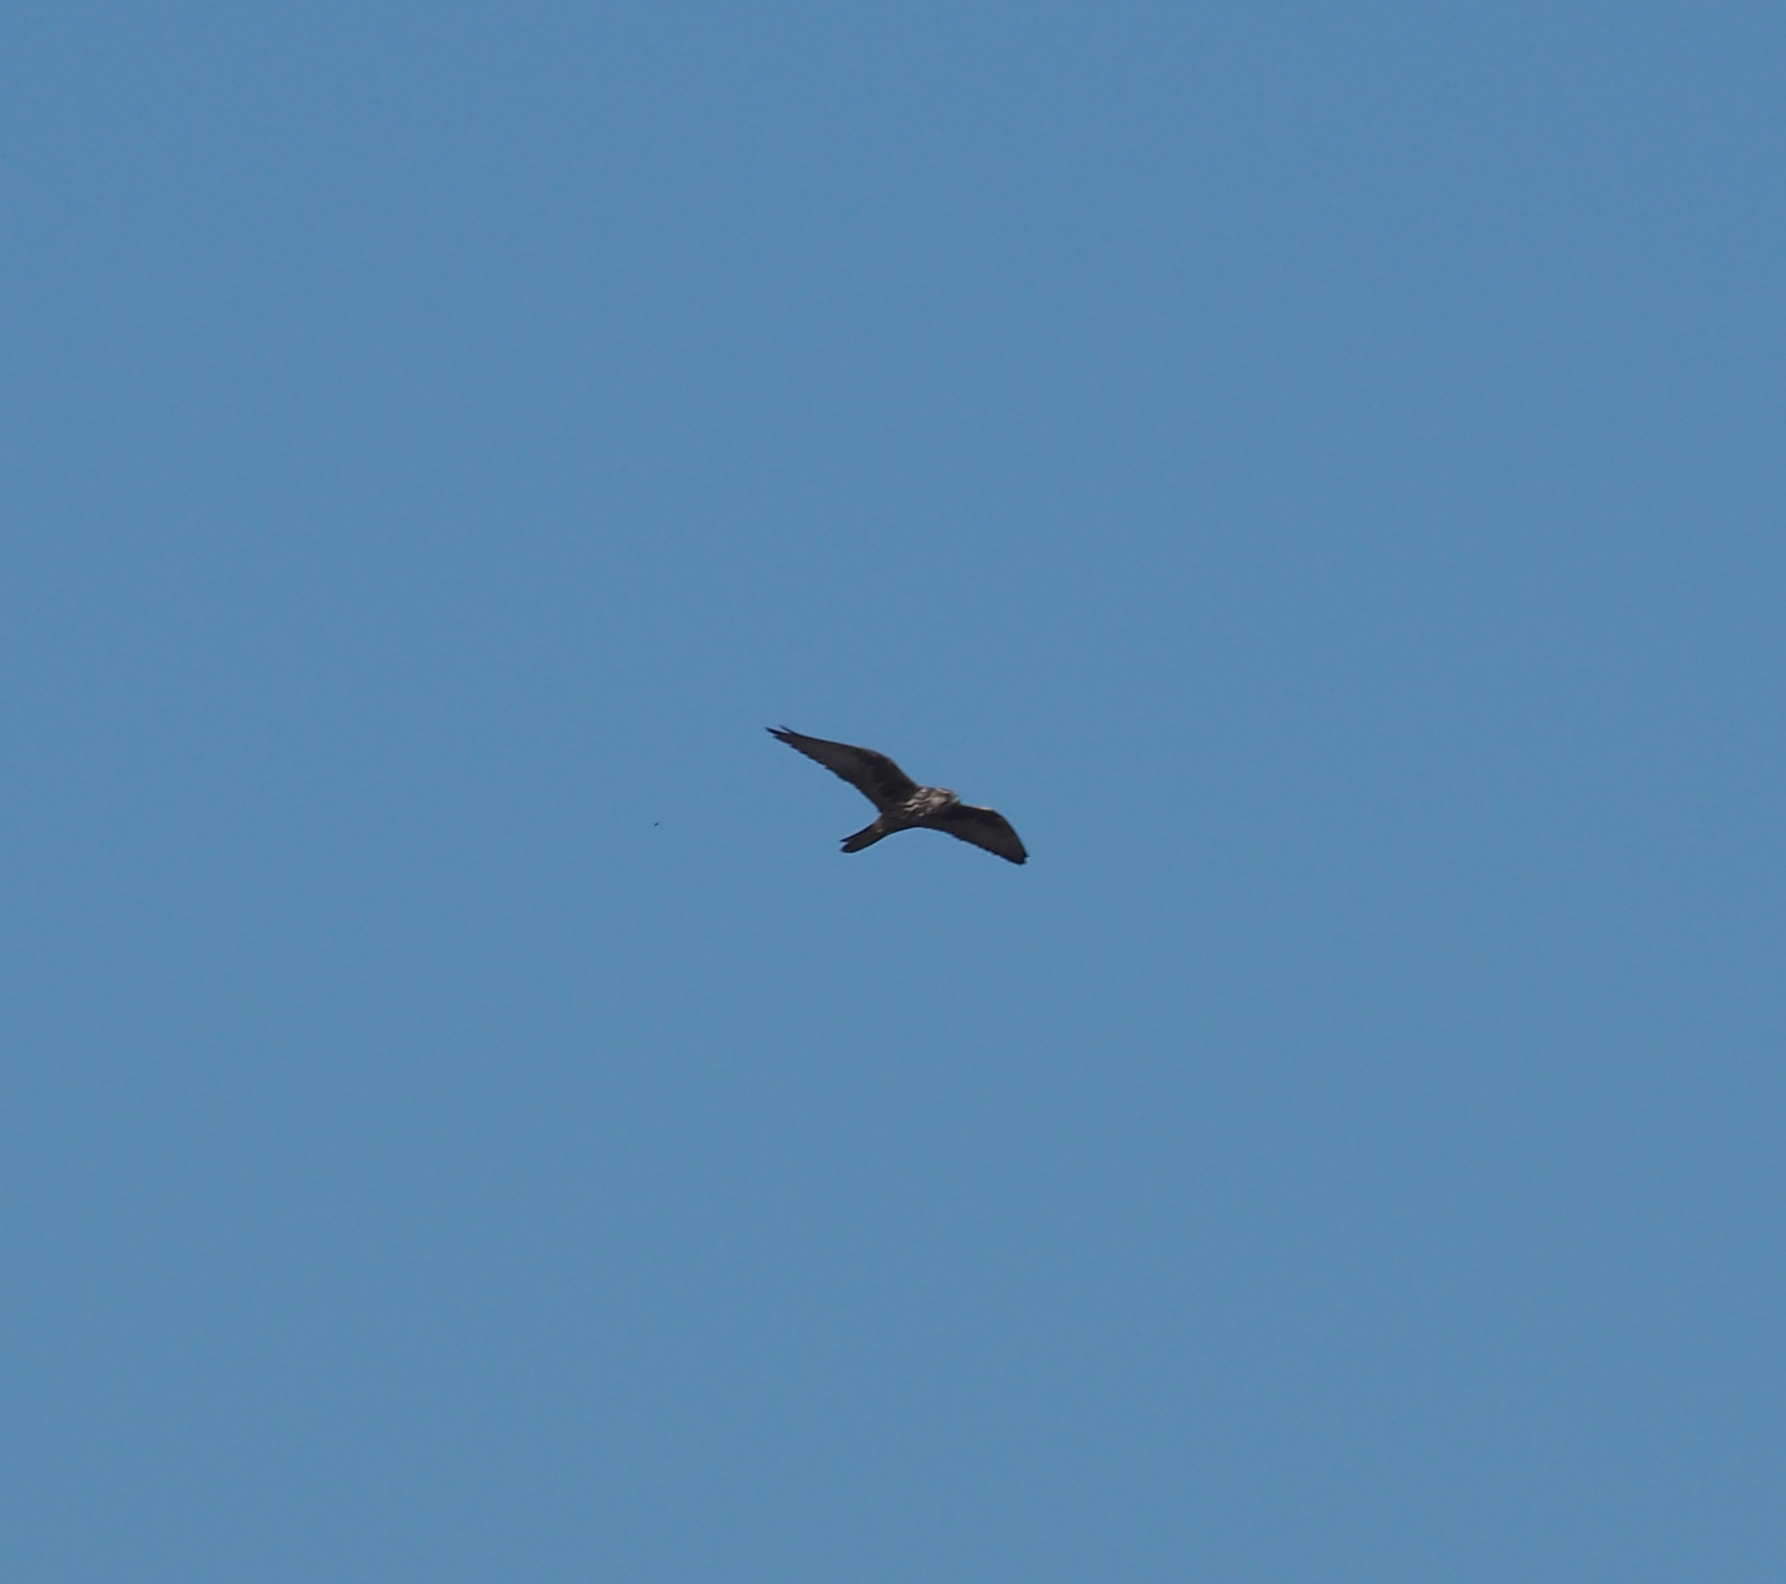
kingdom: Animalia
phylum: Chordata
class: Aves
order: Falconiformes
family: Falconidae
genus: Falco
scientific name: Falco cherrug
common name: Saker falcon
